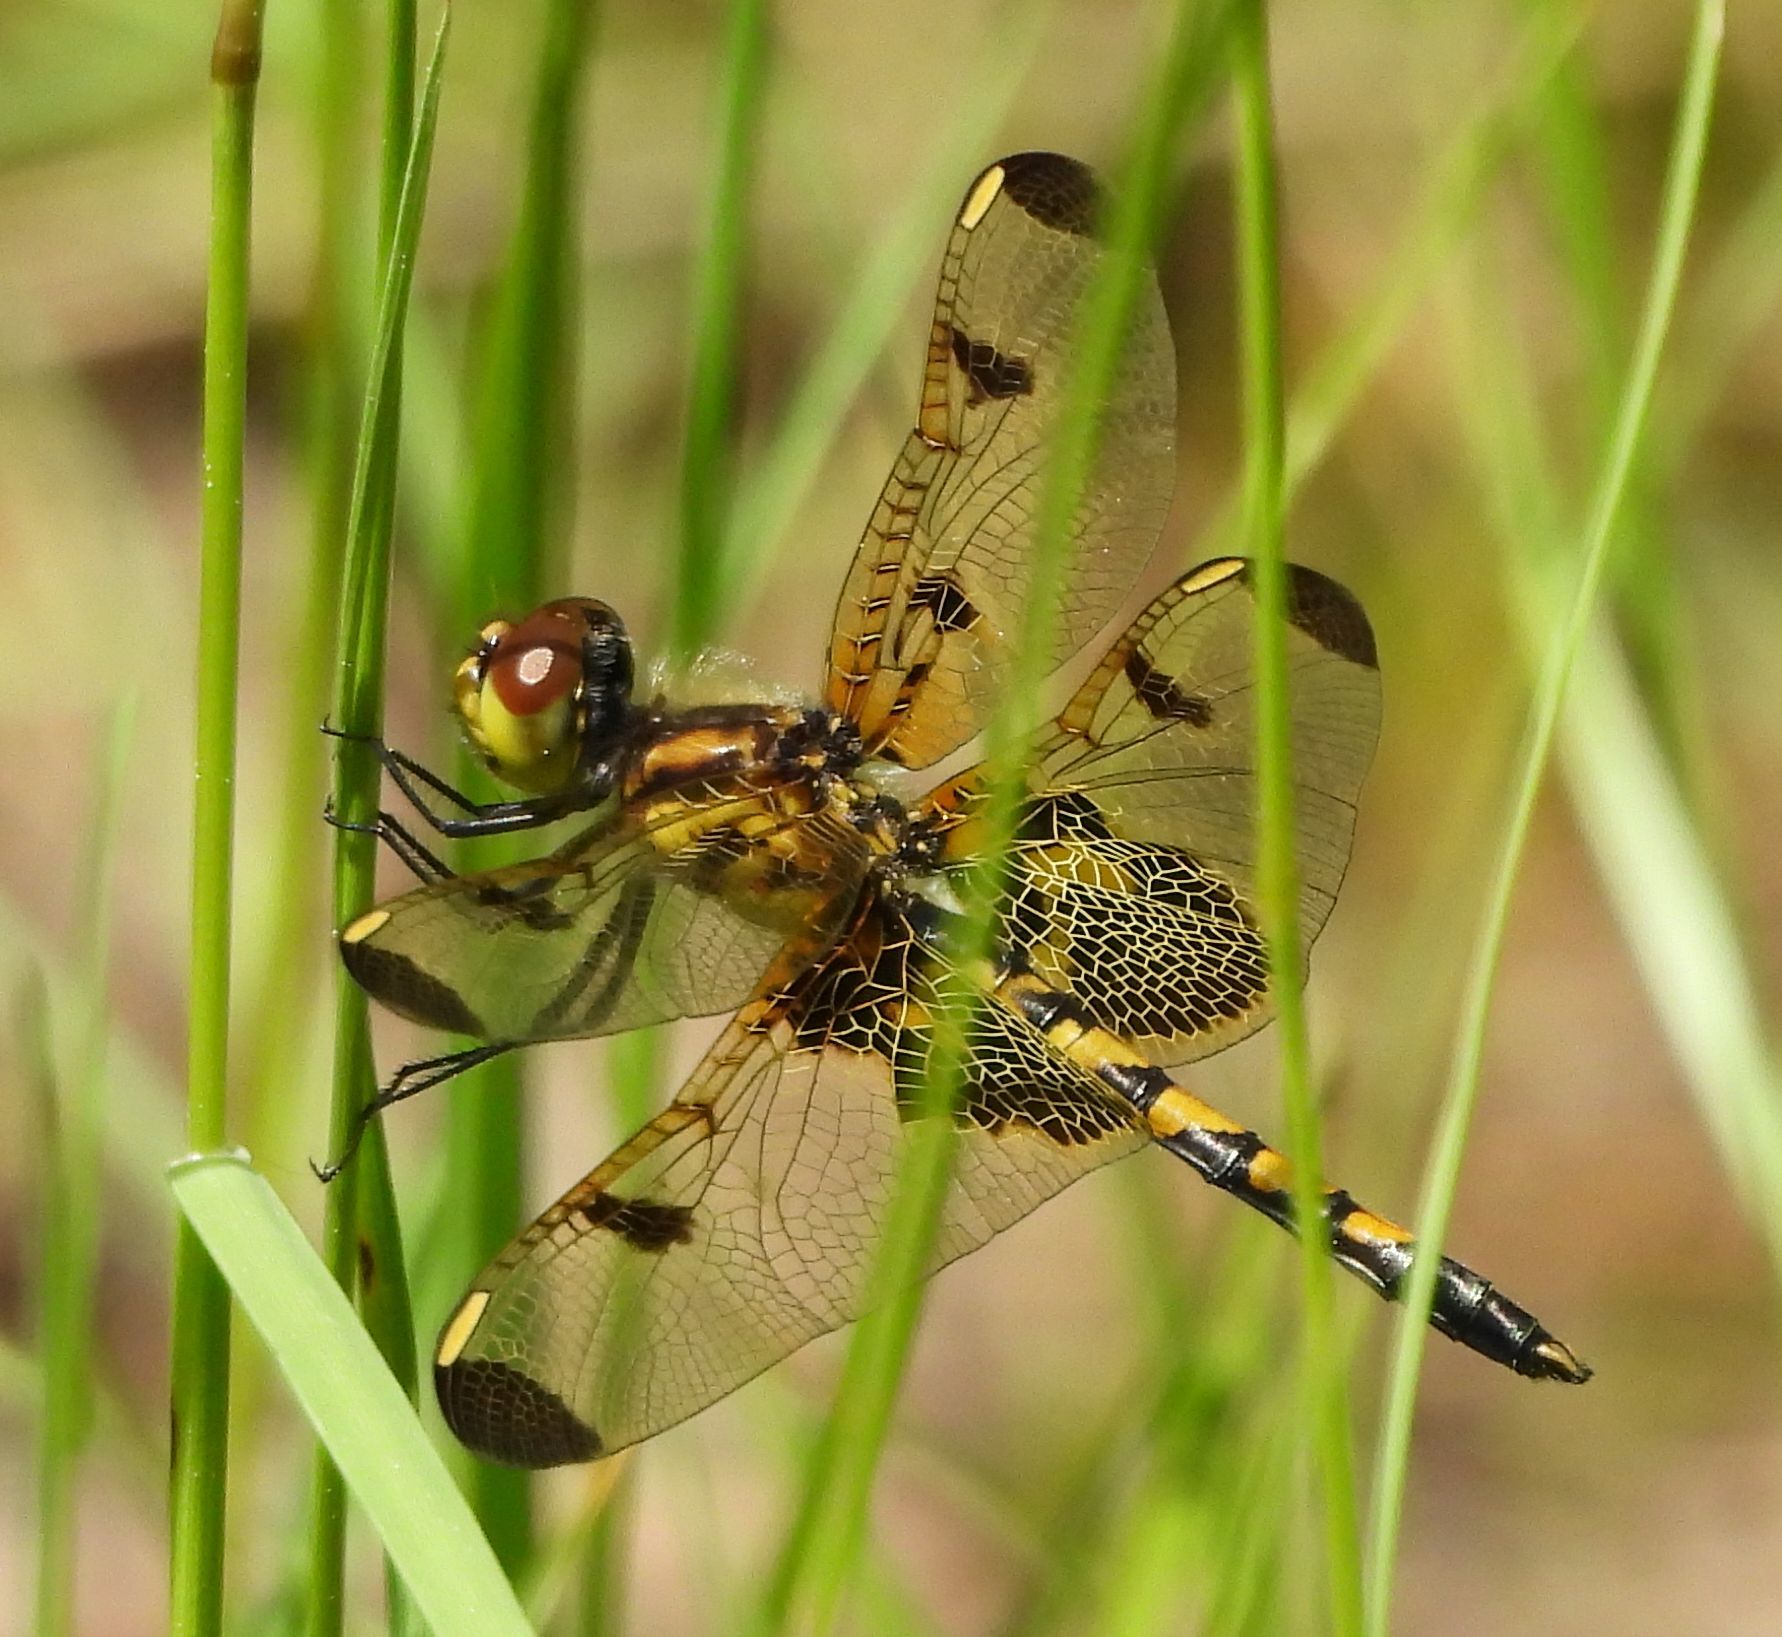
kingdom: Animalia
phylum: Arthropoda
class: Insecta
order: Odonata
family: Libellulidae
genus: Celithemis
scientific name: Celithemis elisa
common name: Calico pennant
